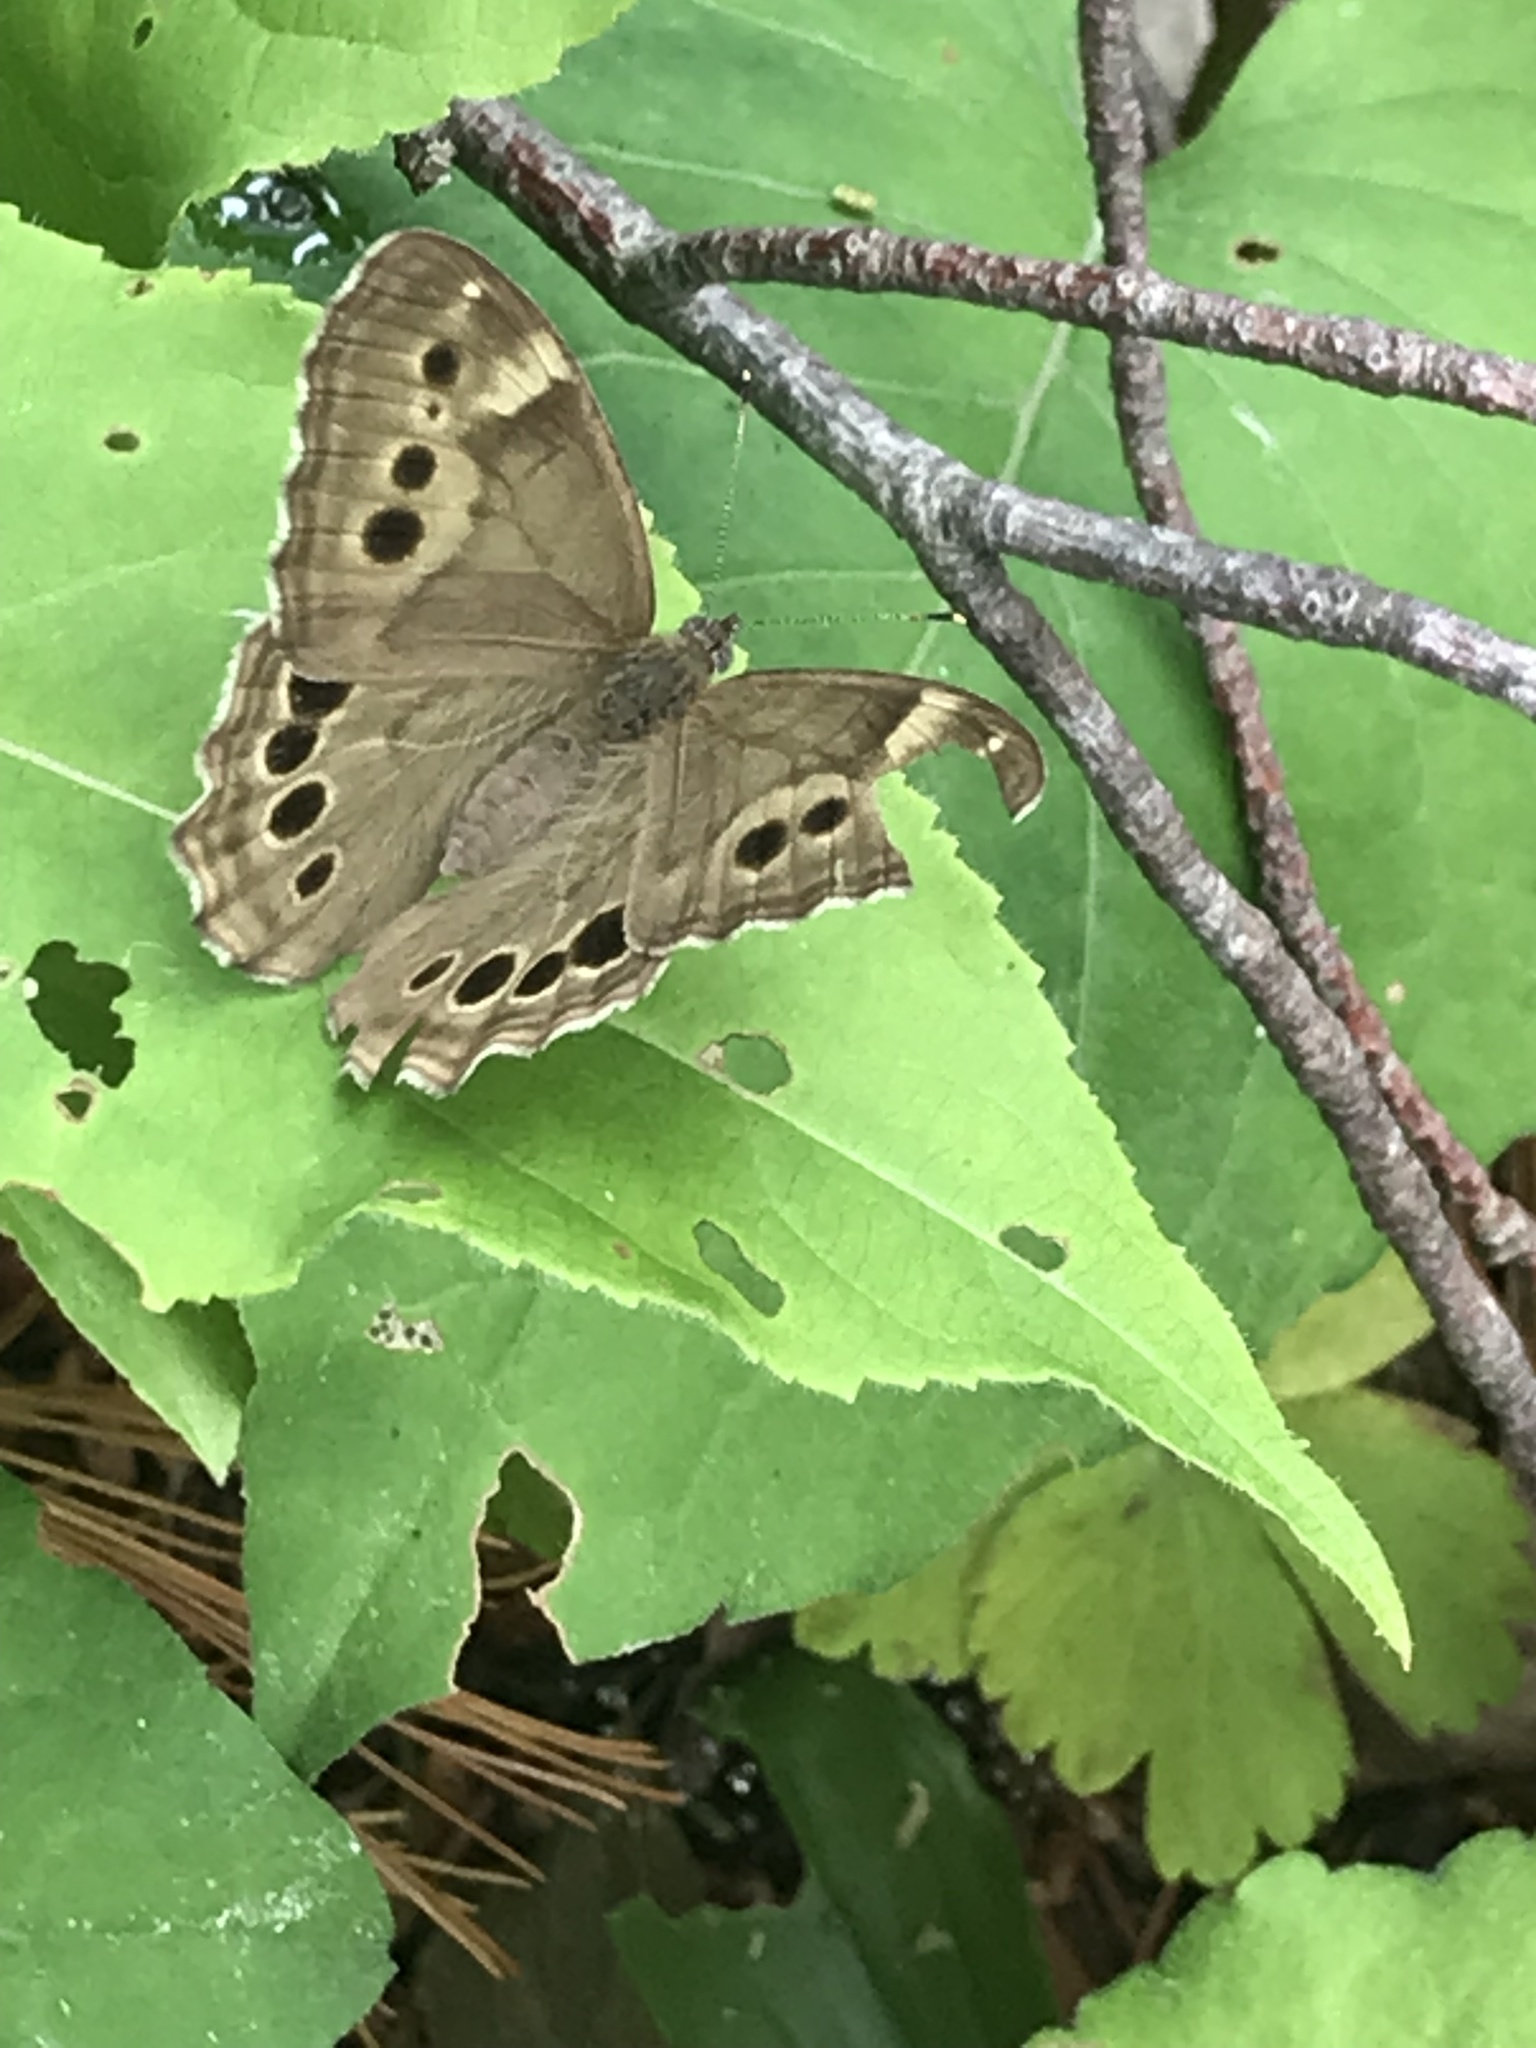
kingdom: Animalia
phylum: Arthropoda
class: Insecta
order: Lepidoptera
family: Nymphalidae
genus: Lethe
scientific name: Lethe anthedon
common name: Northern pearly-eye
